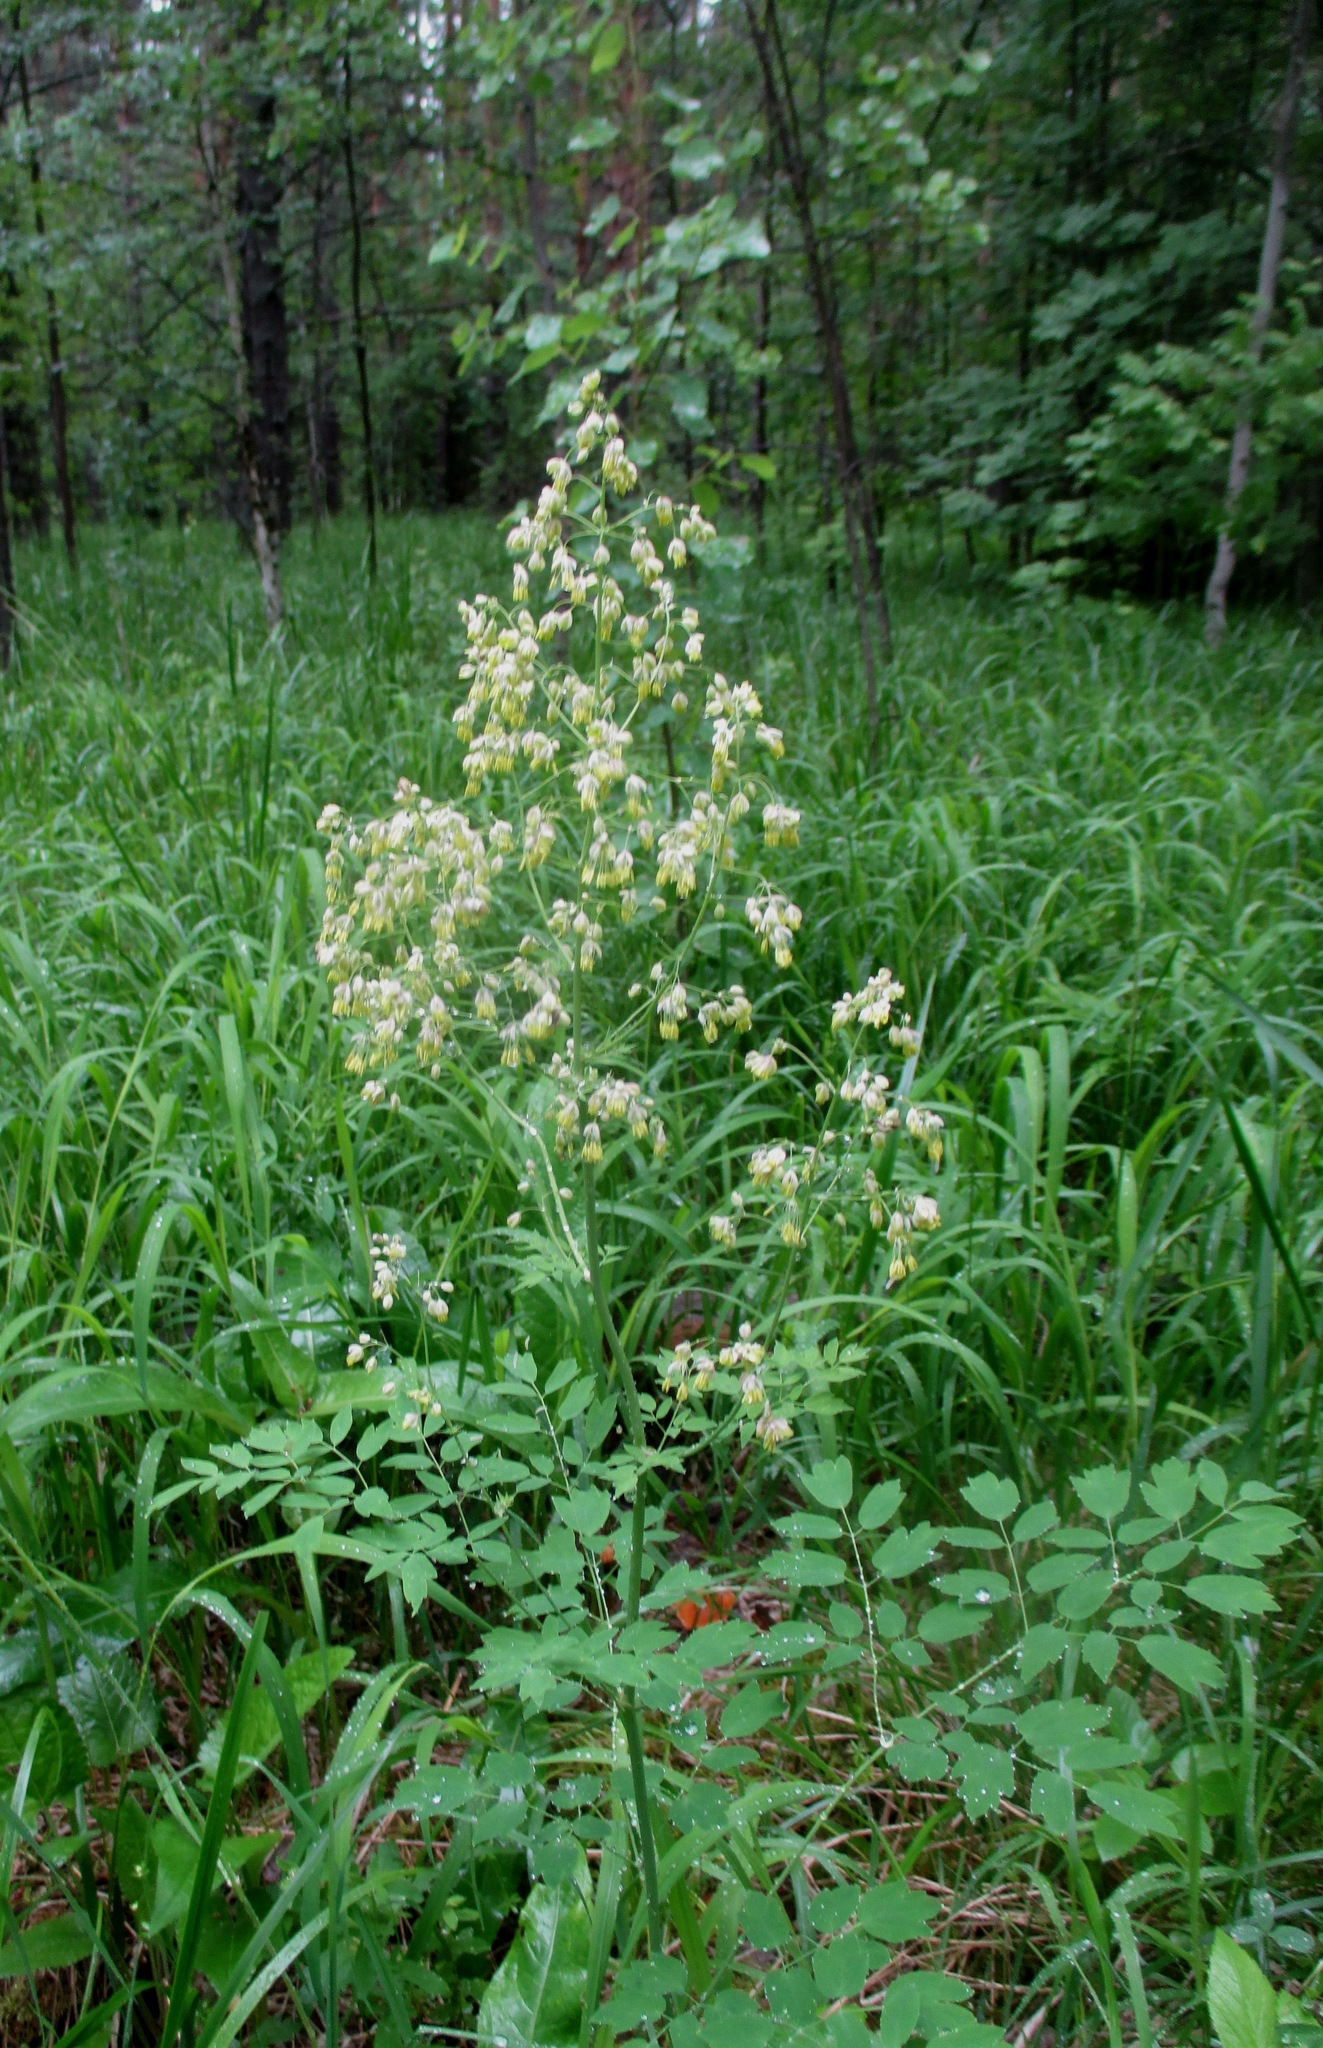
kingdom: Plantae
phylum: Tracheophyta
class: Magnoliopsida
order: Ranunculales
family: Ranunculaceae
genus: Thalictrum
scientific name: Thalictrum minus
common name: Lesser meadow-rue
